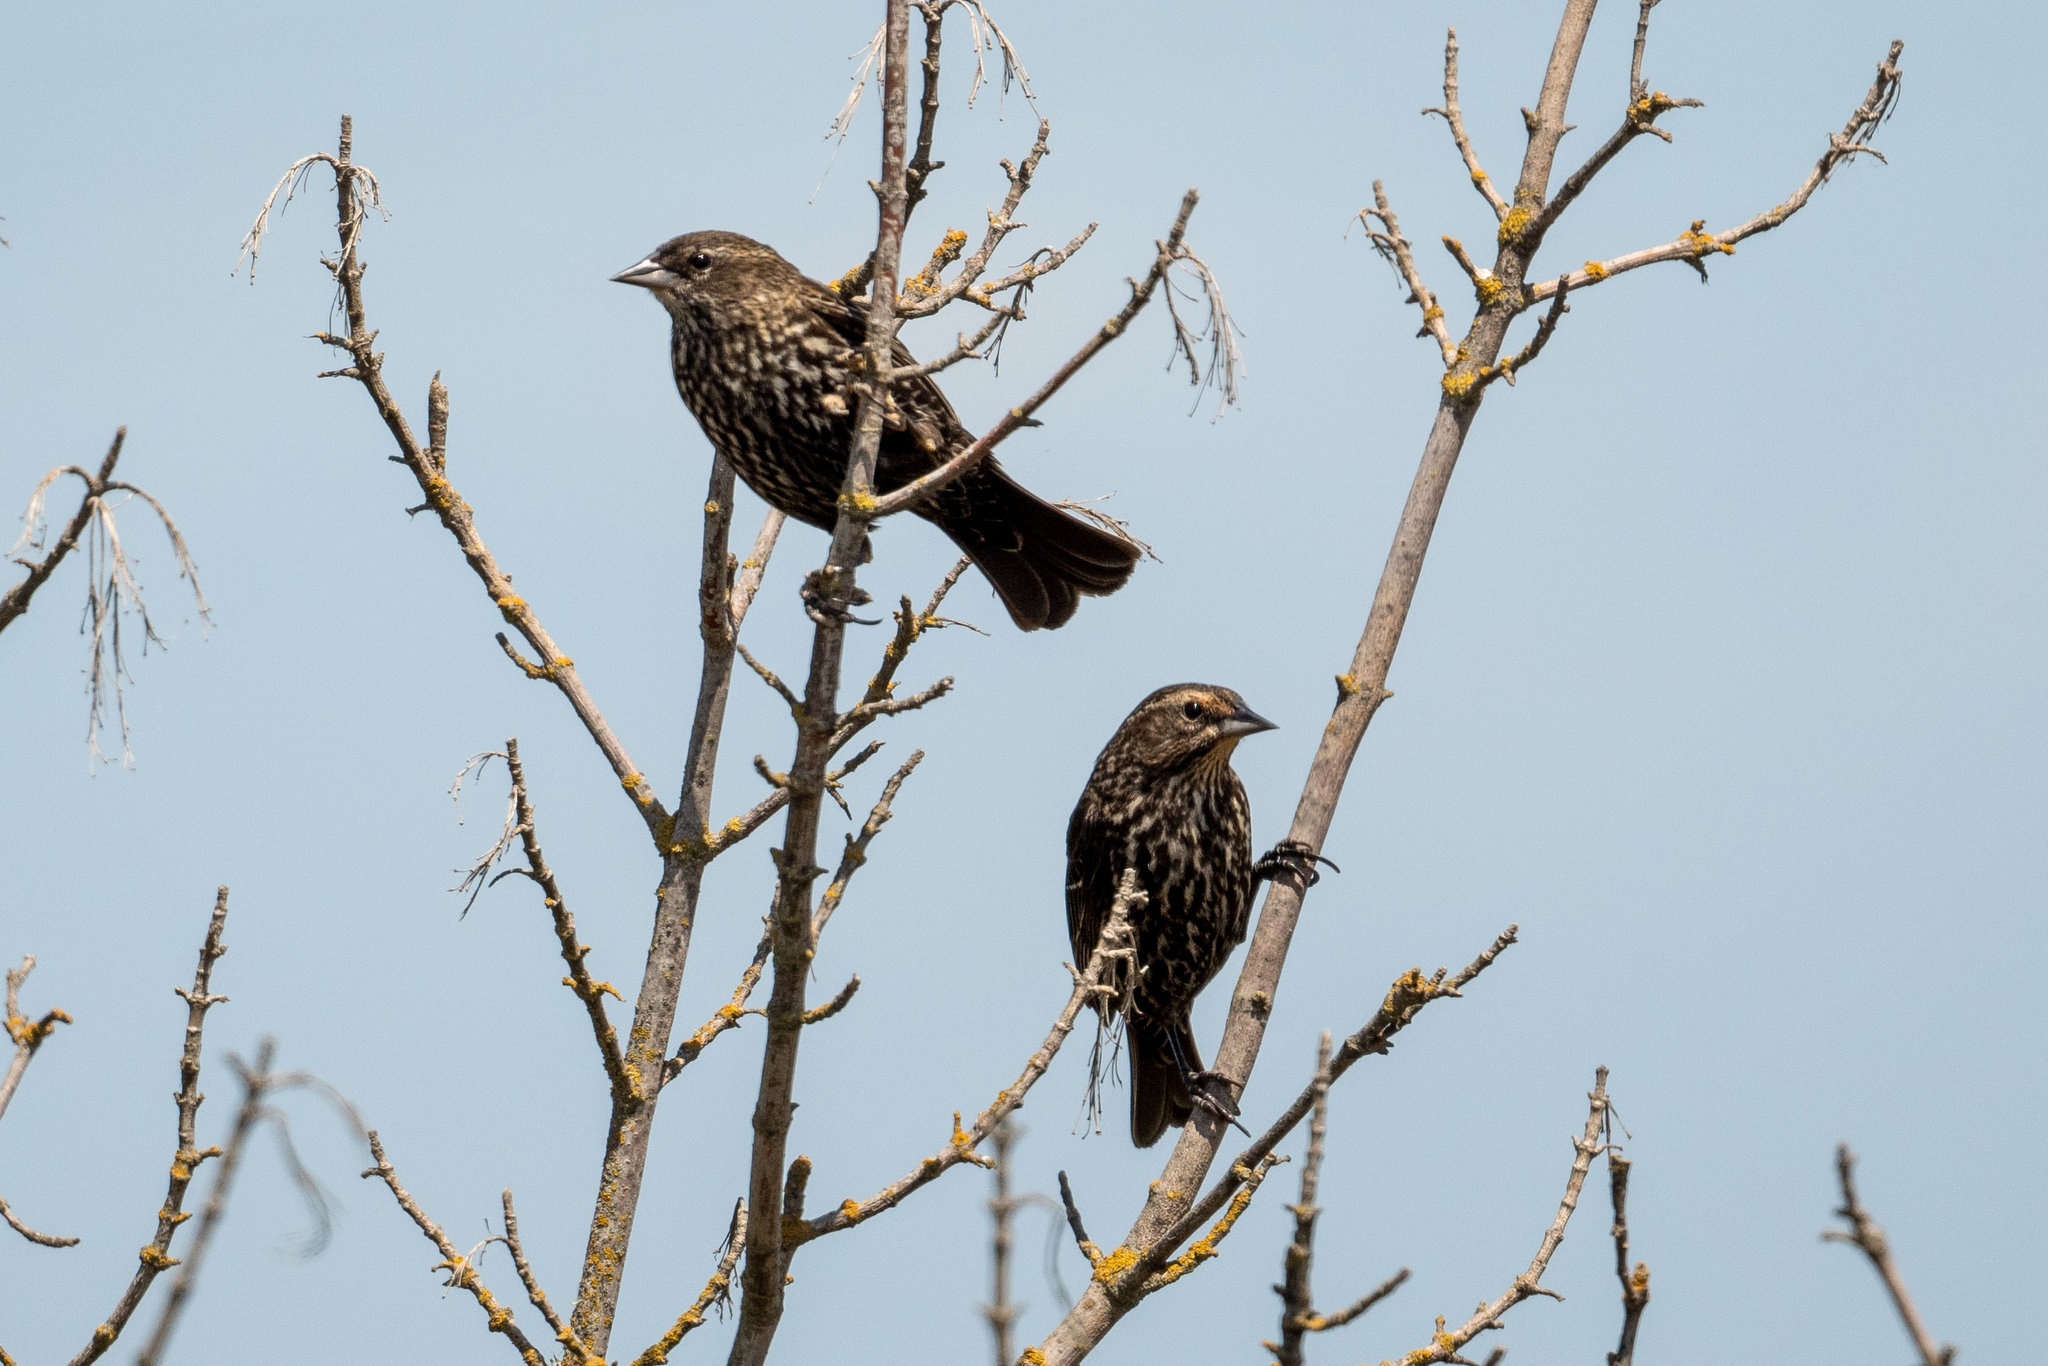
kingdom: Animalia
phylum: Chordata
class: Aves
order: Passeriformes
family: Icteridae
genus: Agelaius
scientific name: Agelaius phoeniceus
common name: Red-winged blackbird
